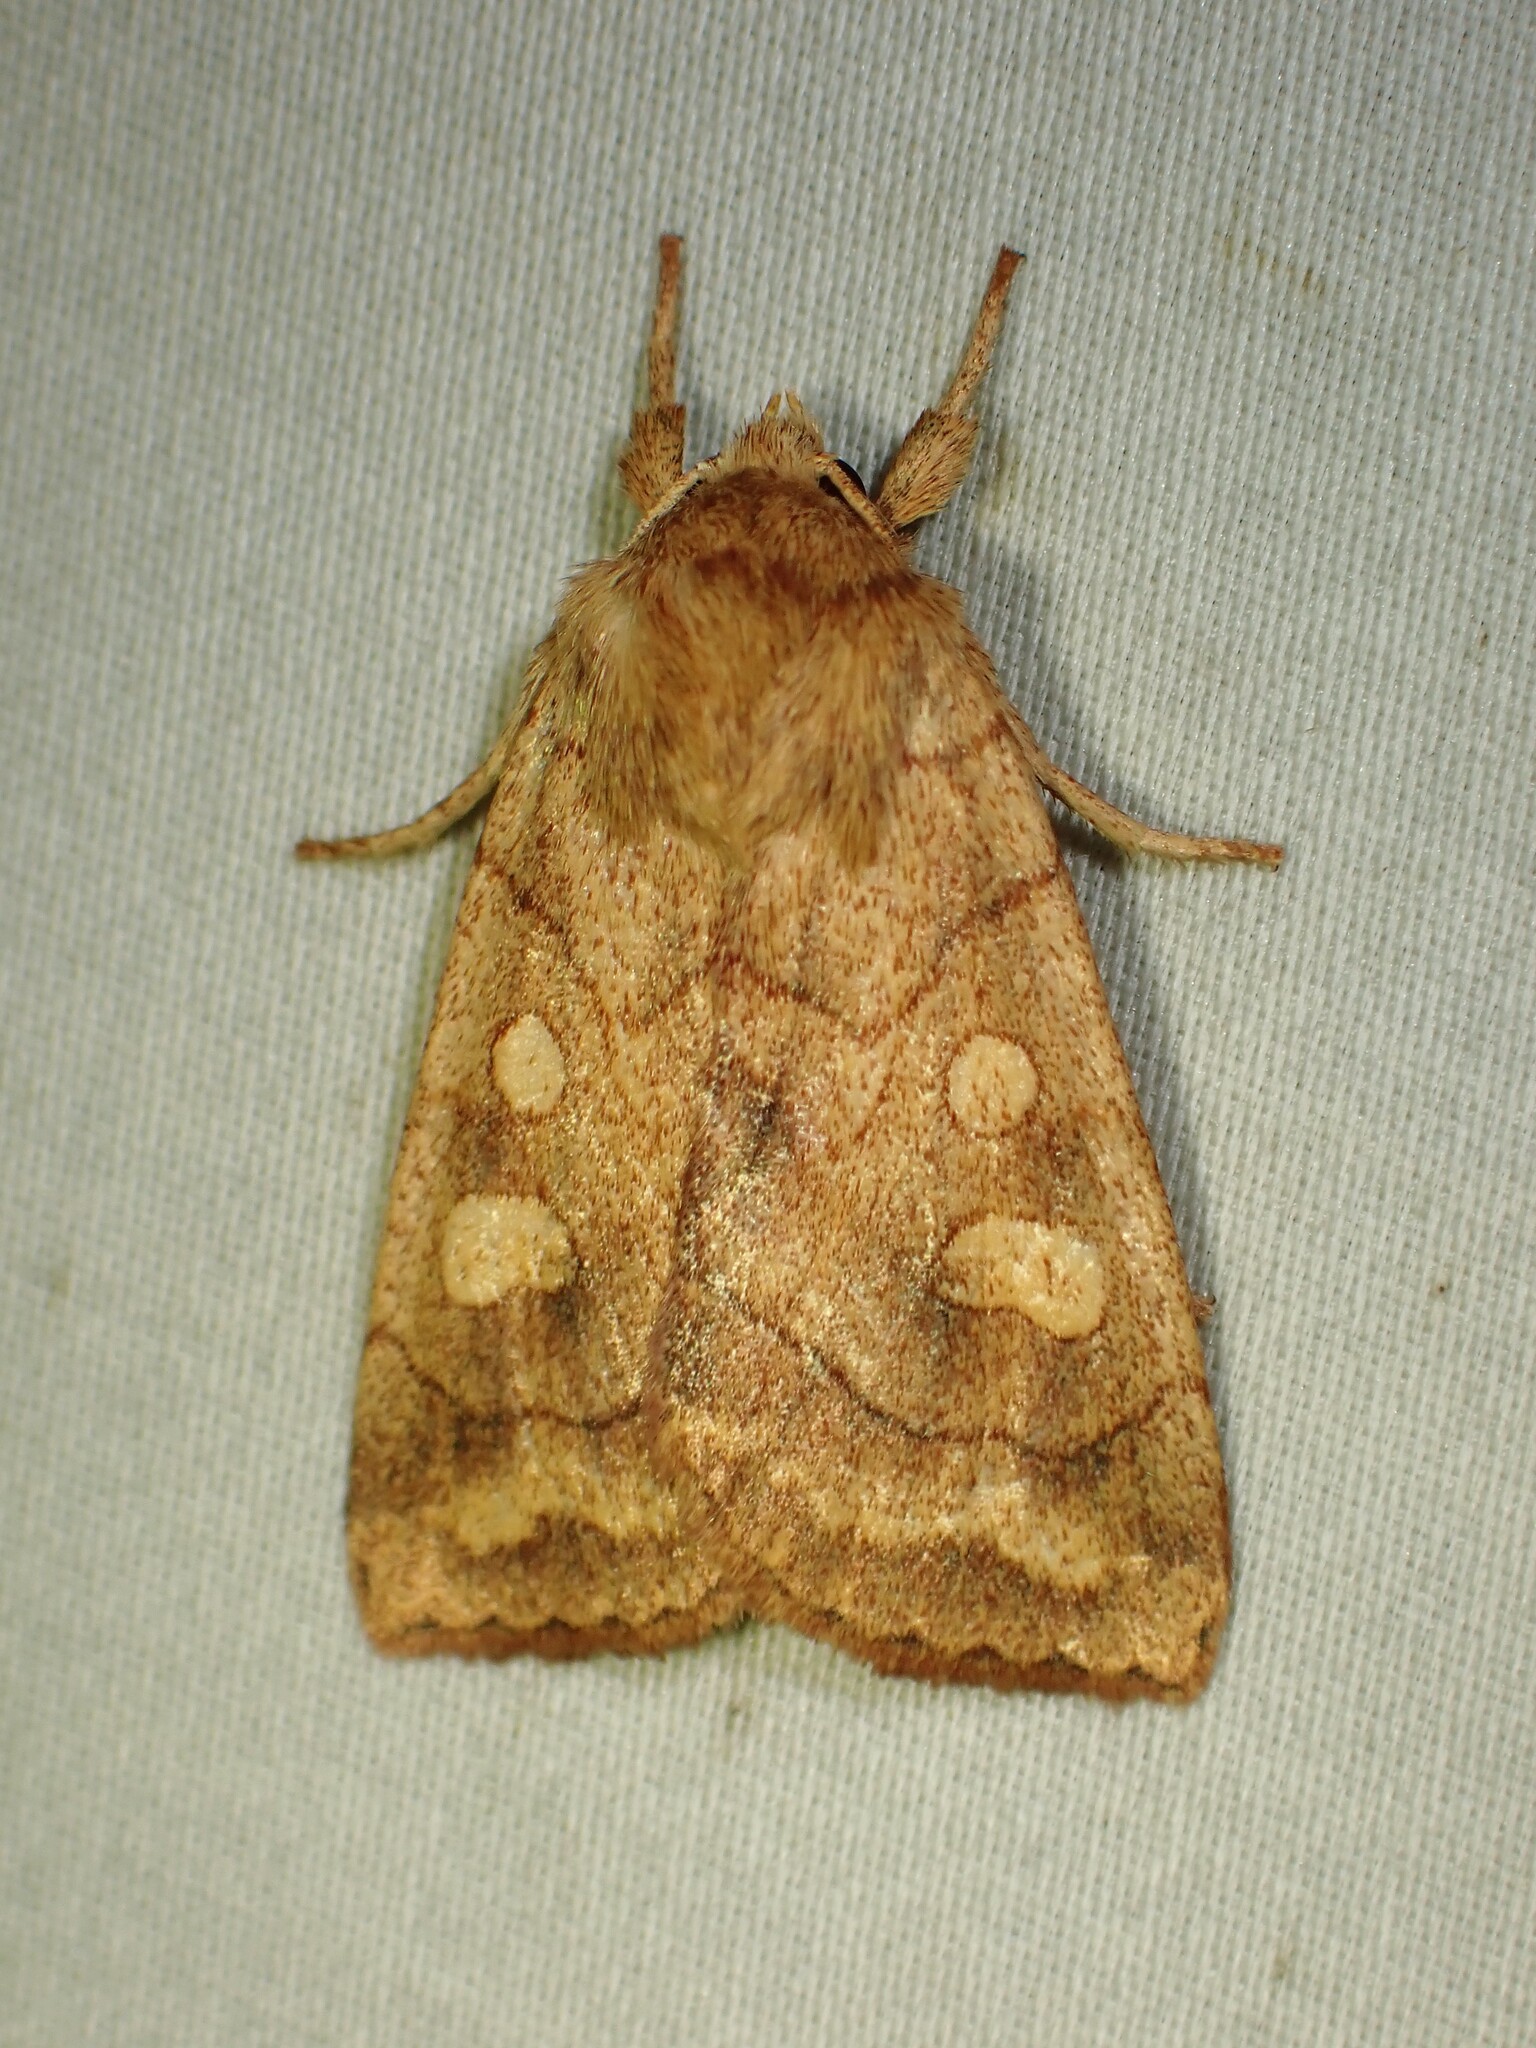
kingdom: Animalia
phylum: Arthropoda
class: Insecta
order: Lepidoptera
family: Noctuidae
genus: Enargia
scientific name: Enargia decolor
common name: Aspen twoleaf tier moth
